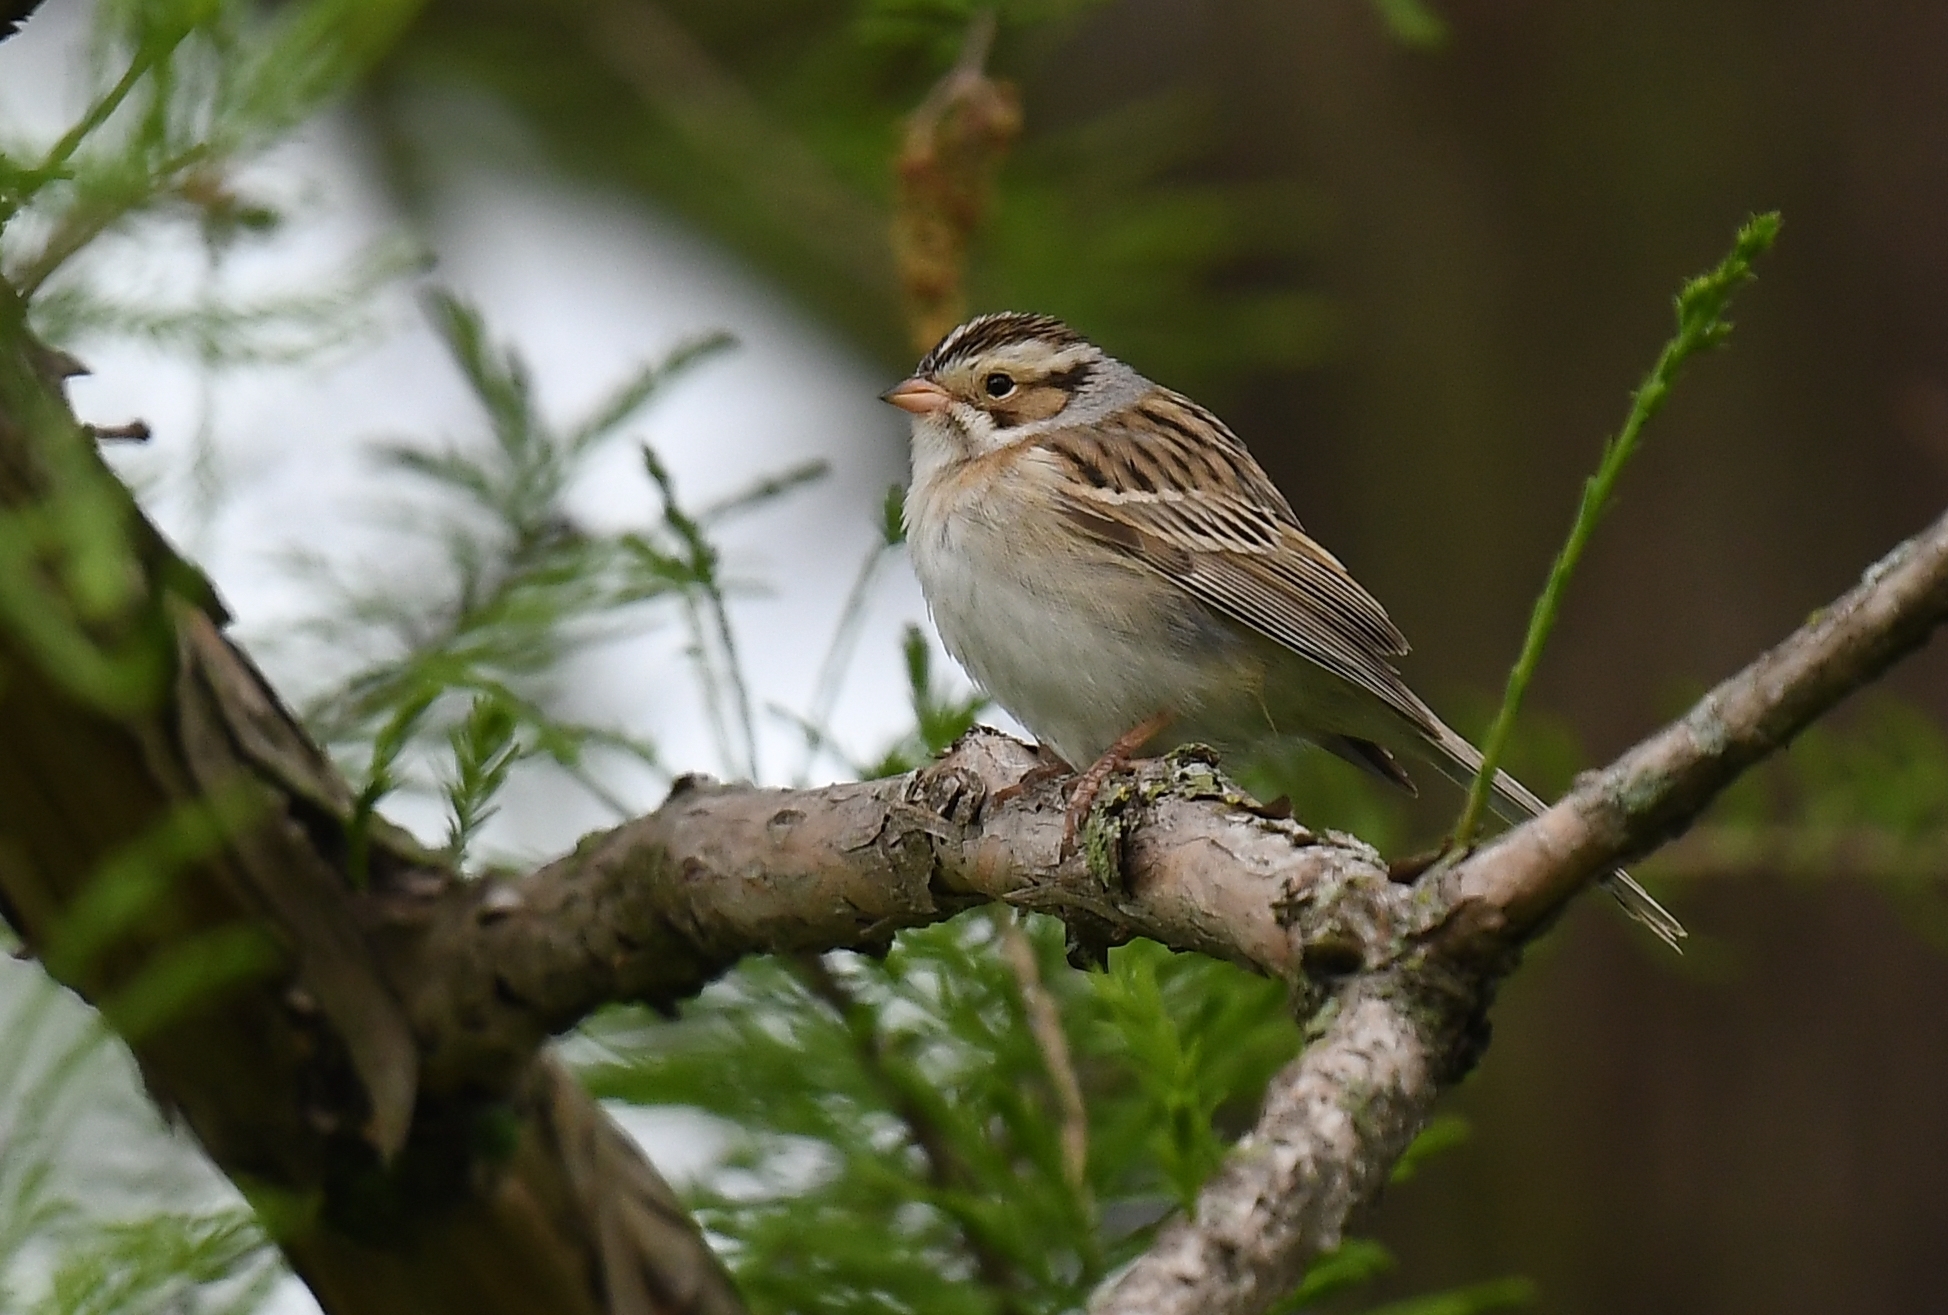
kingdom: Animalia
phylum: Chordata
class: Aves
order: Passeriformes
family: Passerellidae
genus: Spizella
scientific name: Spizella pallida
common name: Clay-colored sparrow
